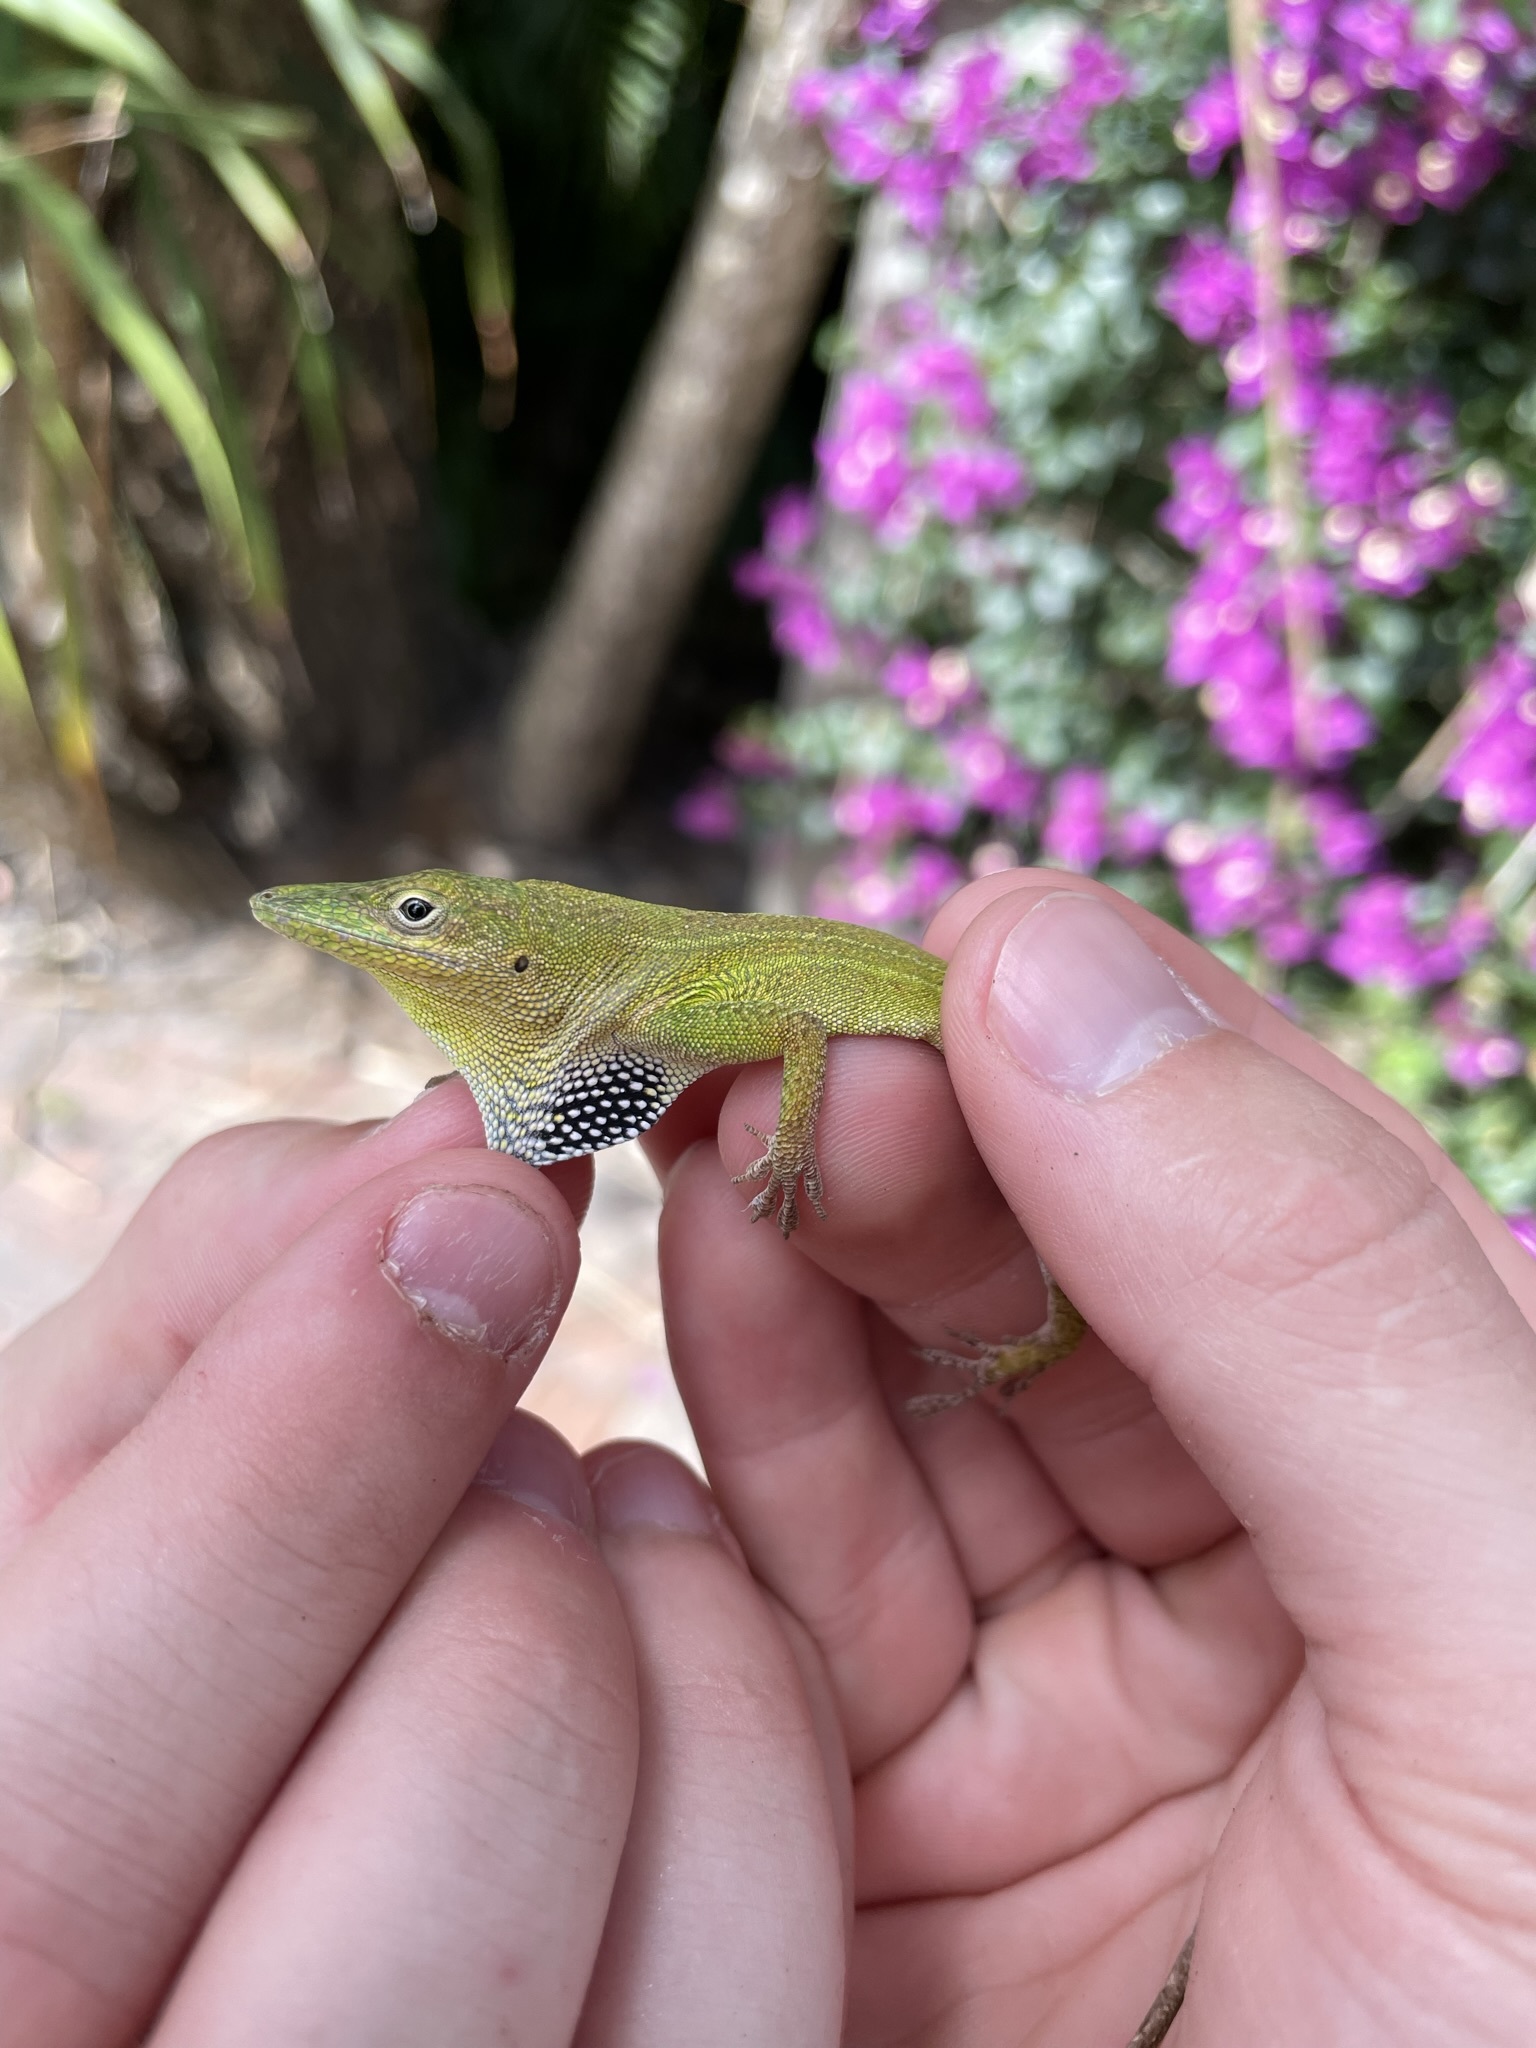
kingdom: Animalia
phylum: Chordata
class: Squamata
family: Dactyloidae
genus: Anolis
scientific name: Anolis chlorocyanus
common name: Hispaniolan green anole
